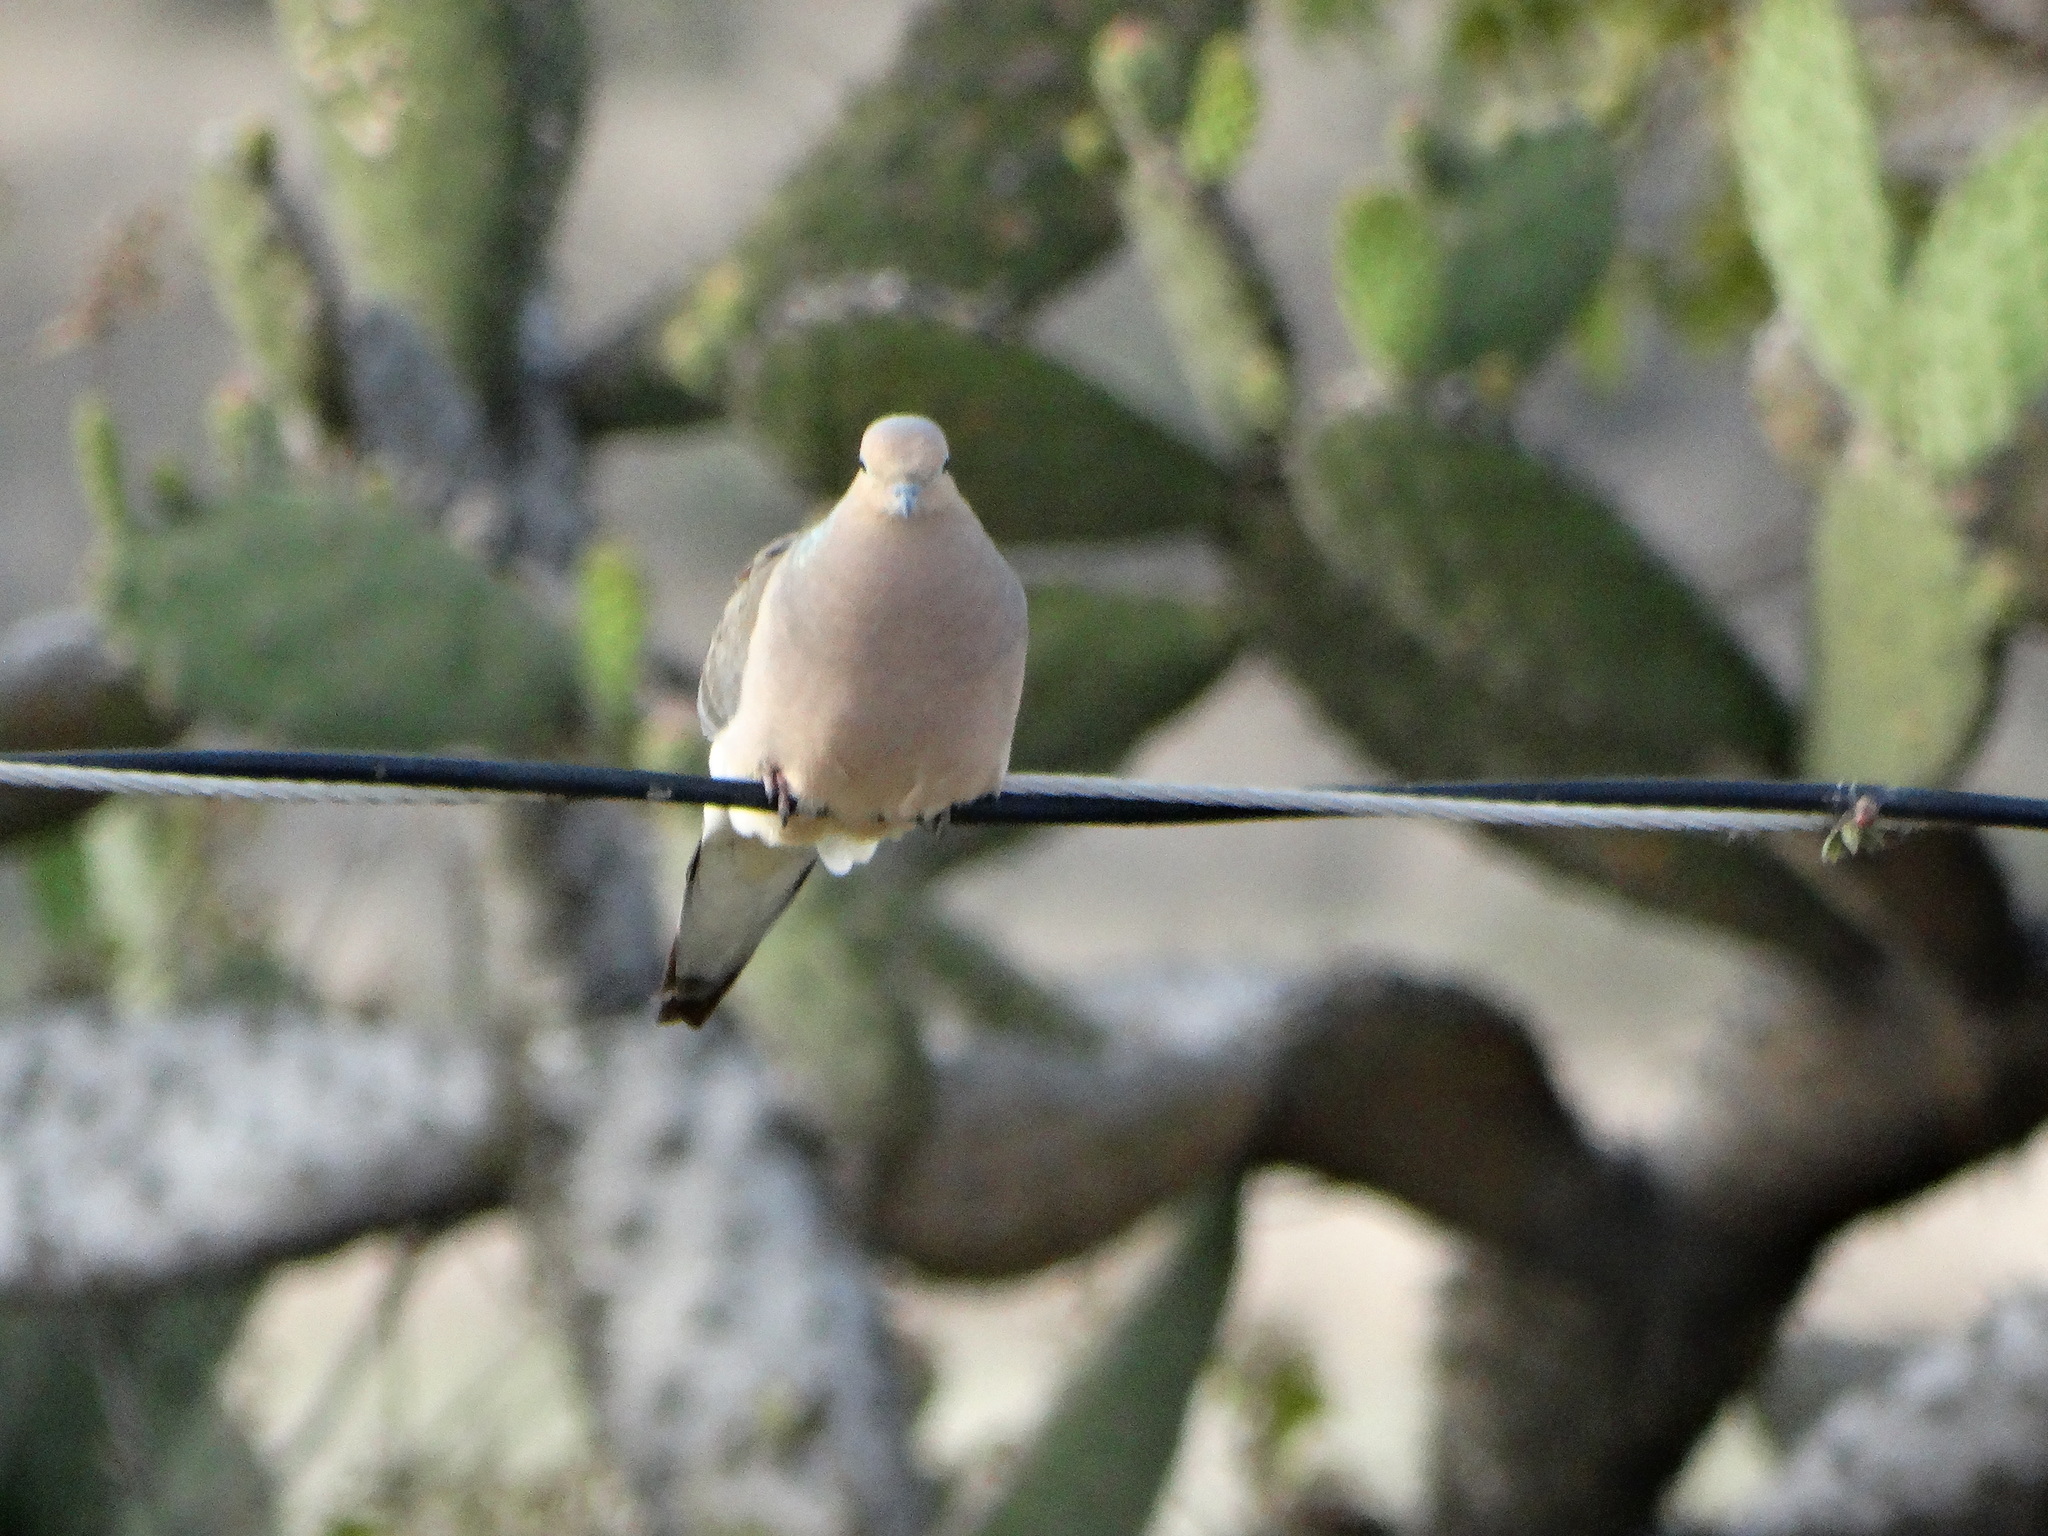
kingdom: Animalia
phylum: Chordata
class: Aves
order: Columbiformes
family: Columbidae
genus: Zenaida
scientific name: Zenaida macroura
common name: Mourning dove
